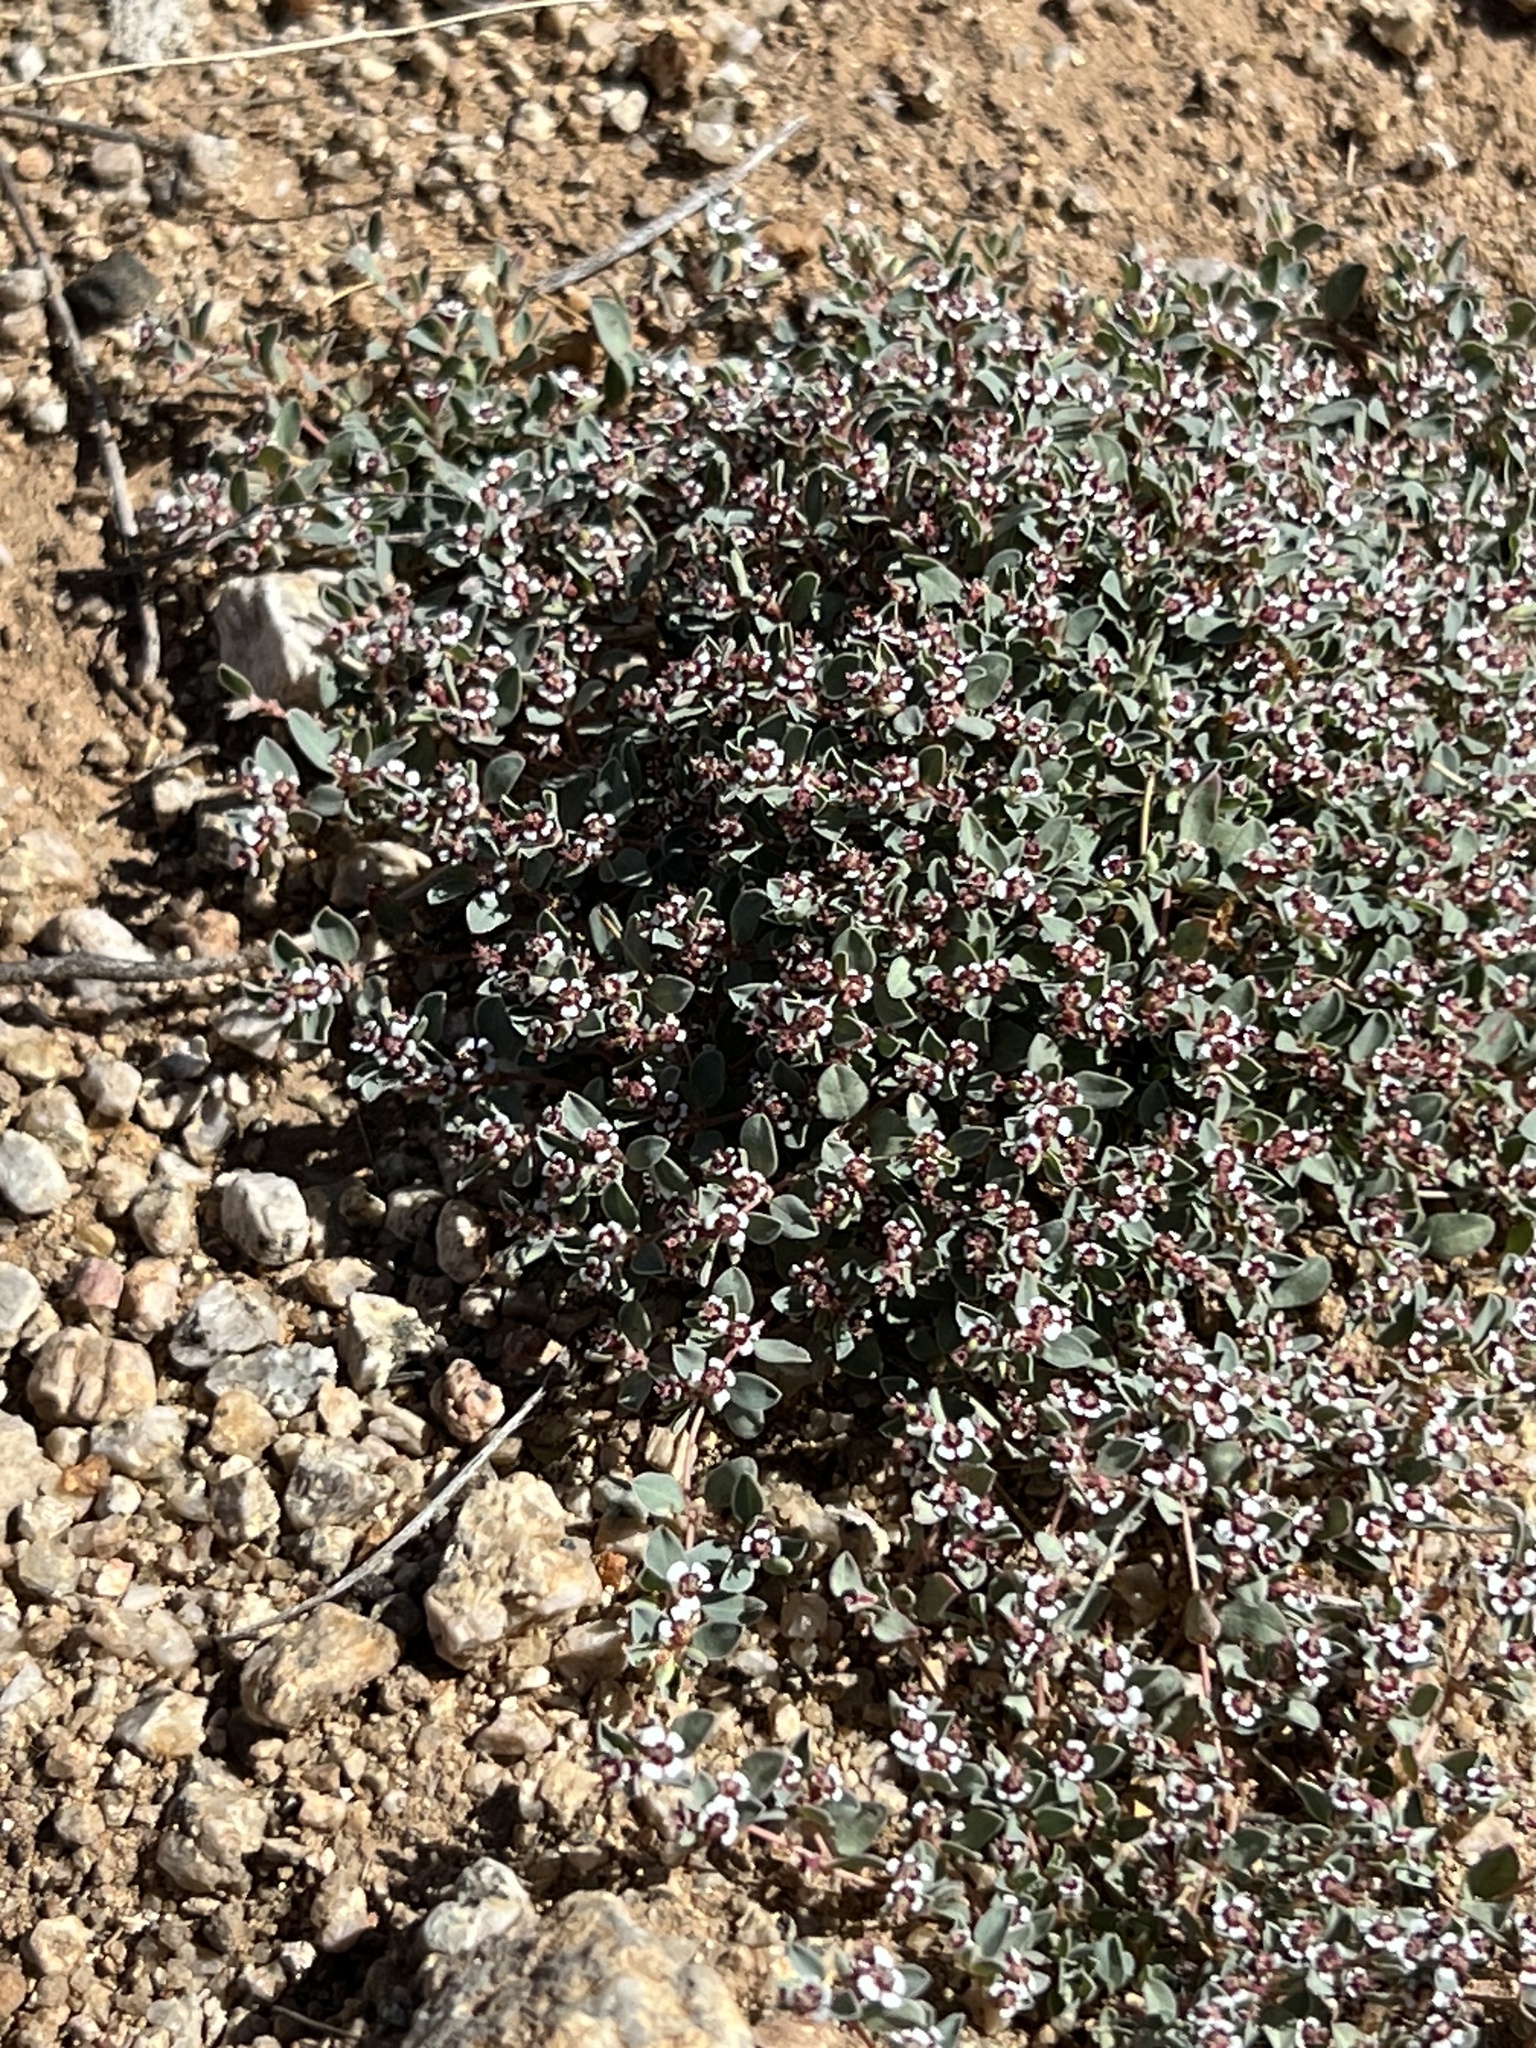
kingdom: Plantae
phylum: Tracheophyta
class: Magnoliopsida
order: Malpighiales
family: Euphorbiaceae
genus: Euphorbia
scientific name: Euphorbia albomarginata
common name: Whitemargin sandmat
